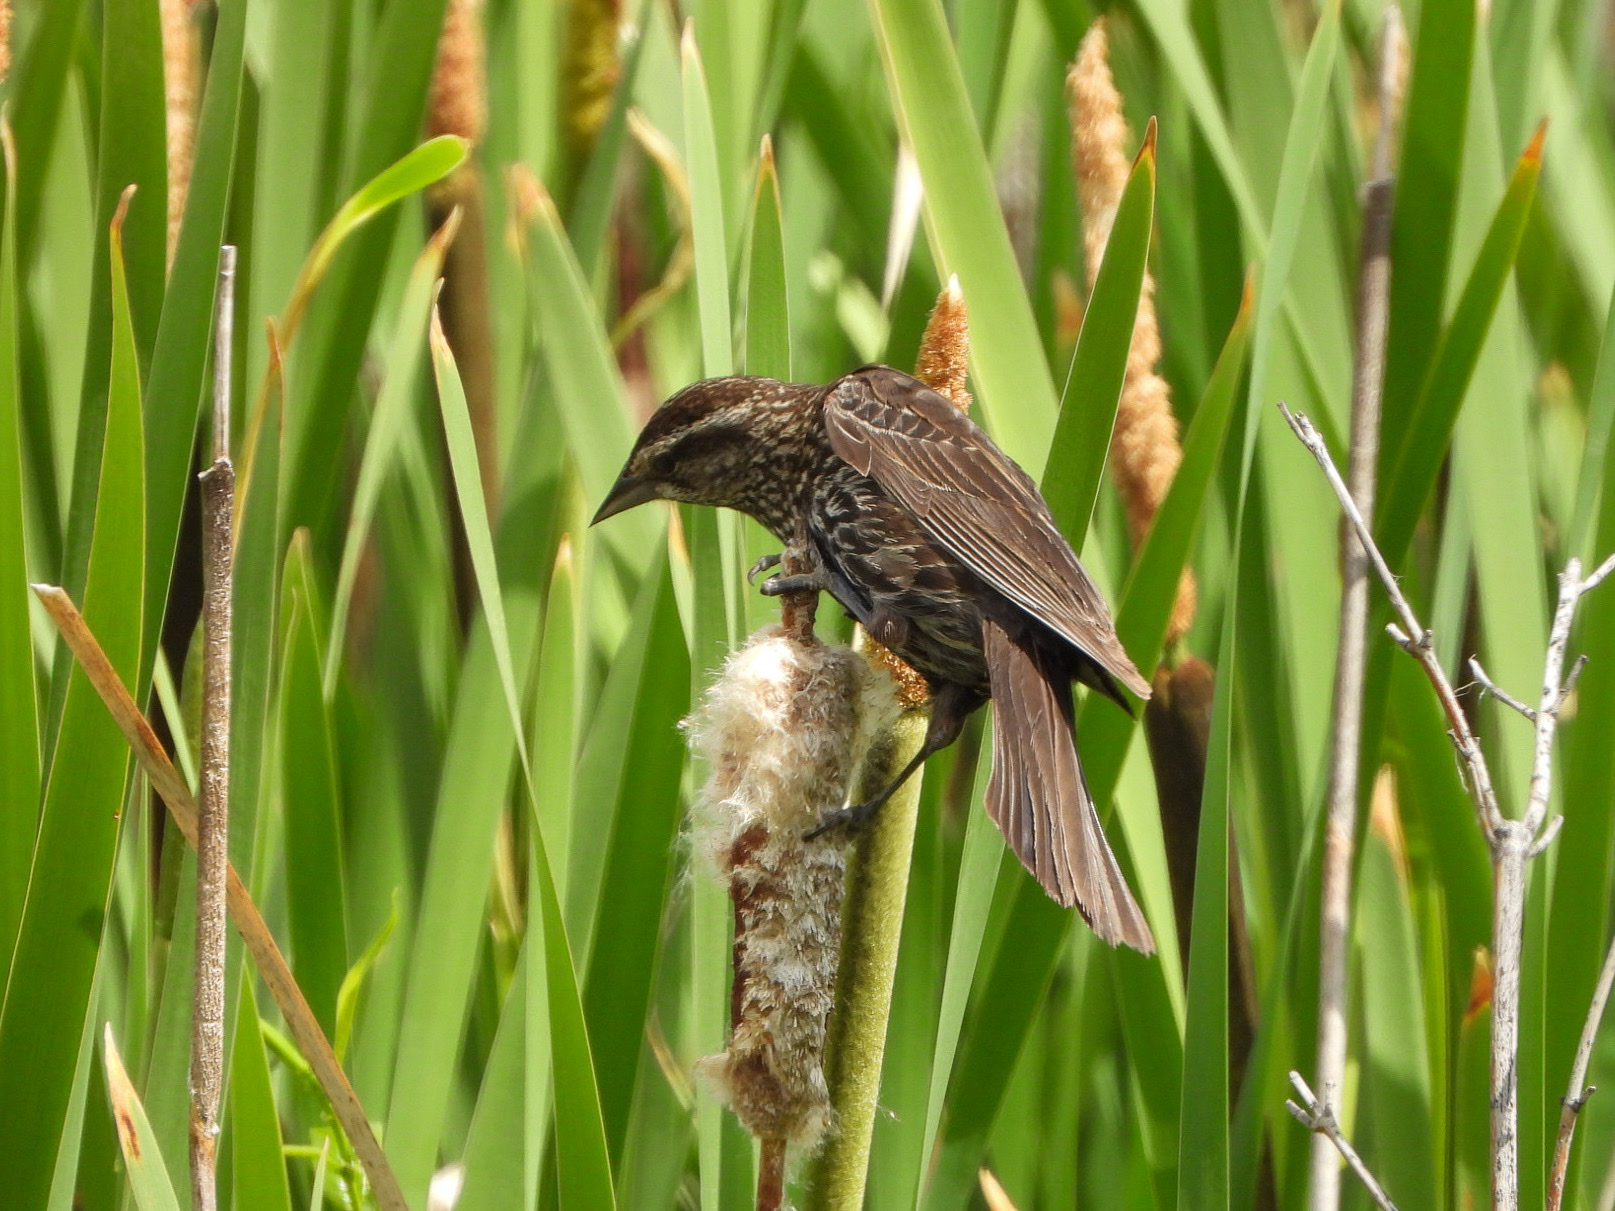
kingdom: Animalia
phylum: Chordata
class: Aves
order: Passeriformes
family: Icteridae
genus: Agelaius
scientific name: Agelaius phoeniceus
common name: Red-winged blackbird
